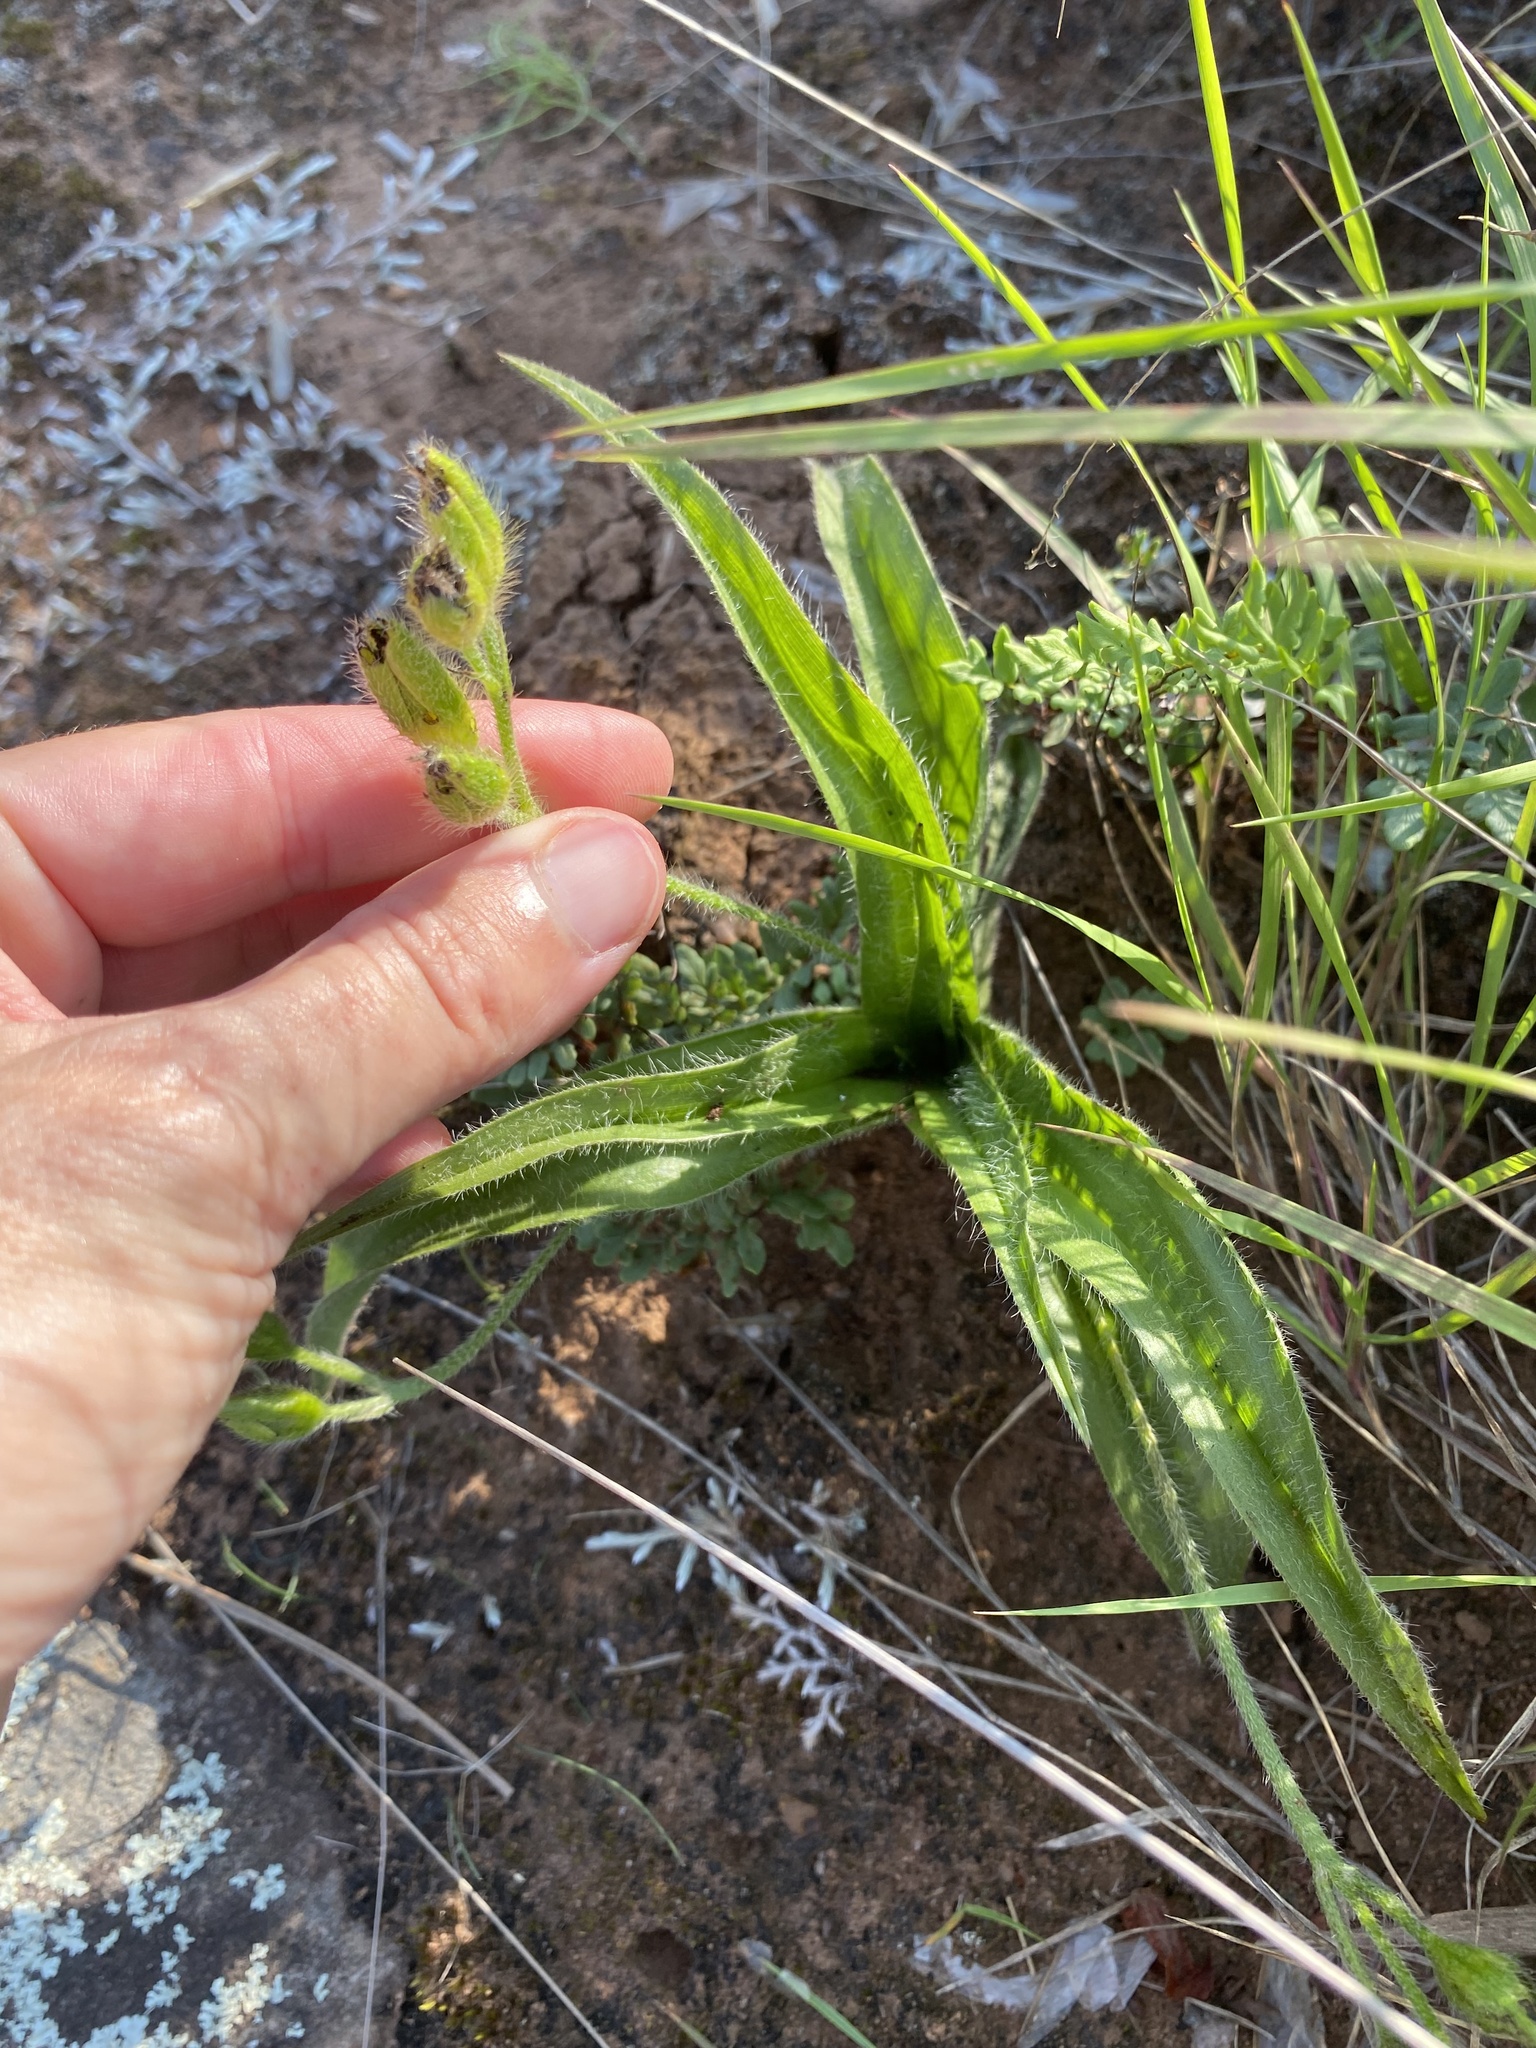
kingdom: Plantae
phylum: Tracheophyta
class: Liliopsida
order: Asparagales
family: Hypoxidaceae
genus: Hypoxis
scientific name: Hypoxis hemerocallidea
